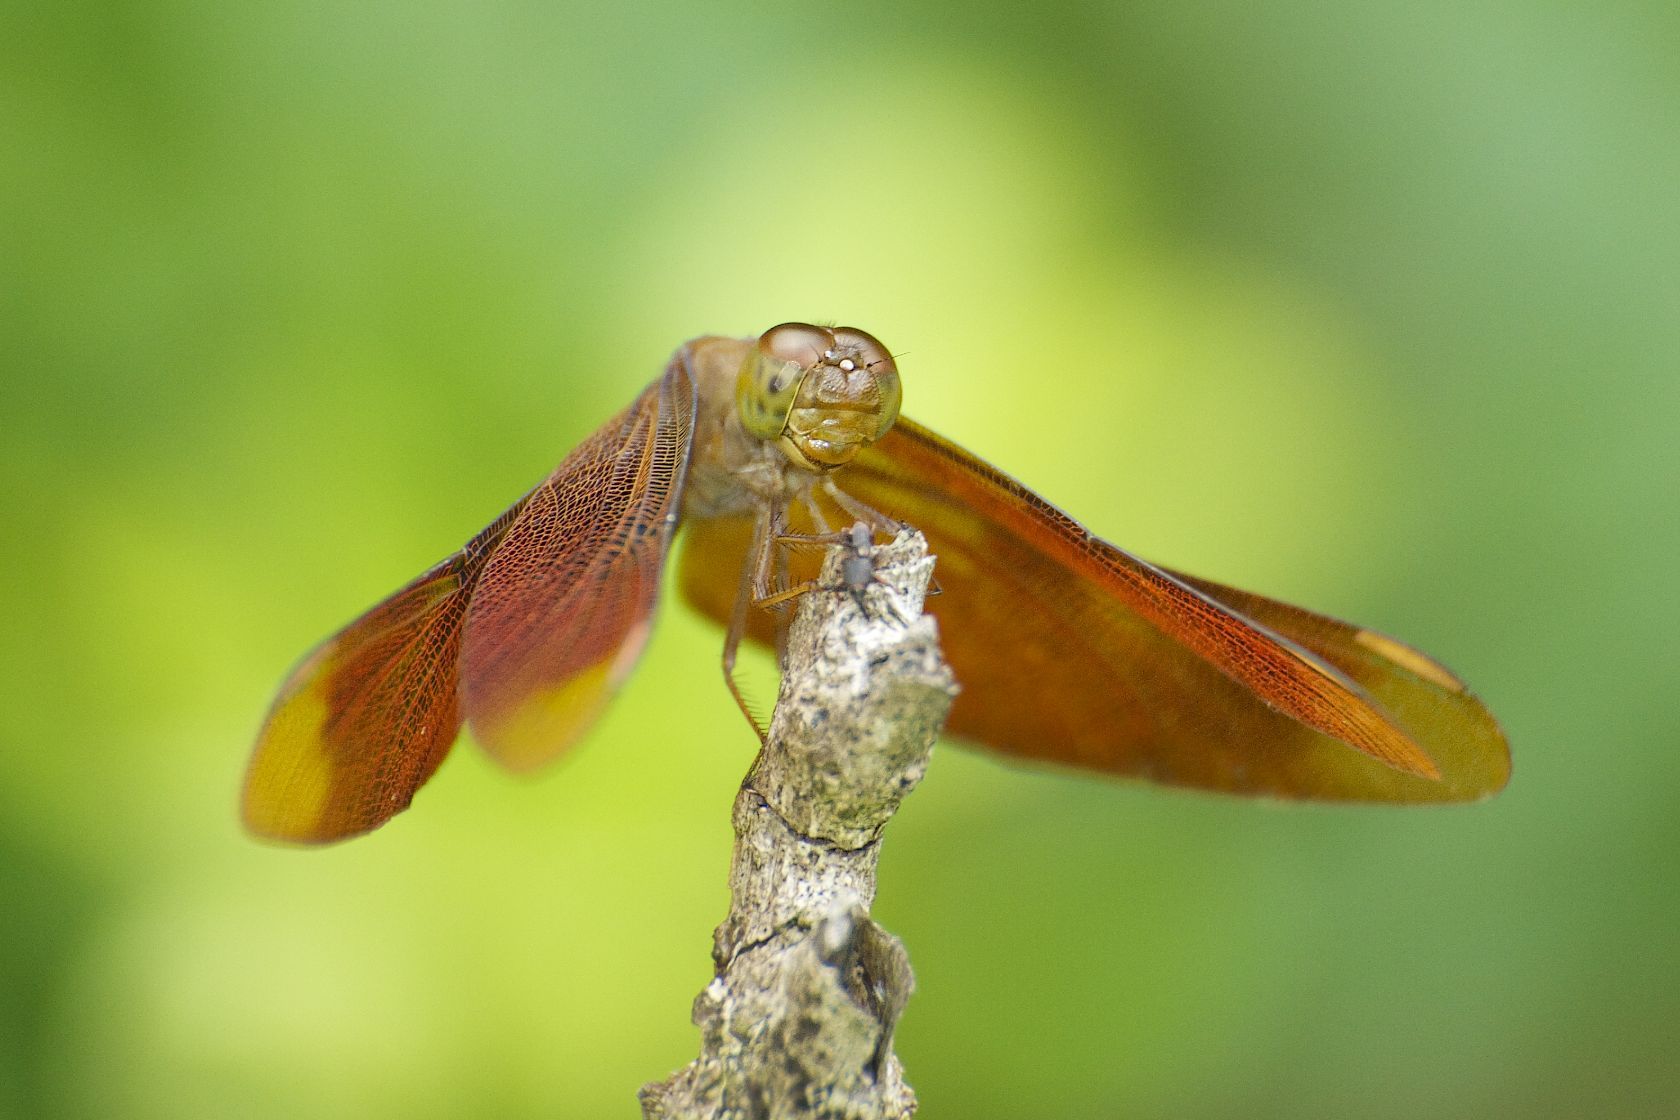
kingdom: Animalia
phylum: Arthropoda
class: Insecta
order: Odonata
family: Libellulidae
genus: Neurothemis
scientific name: Neurothemis fulvia
